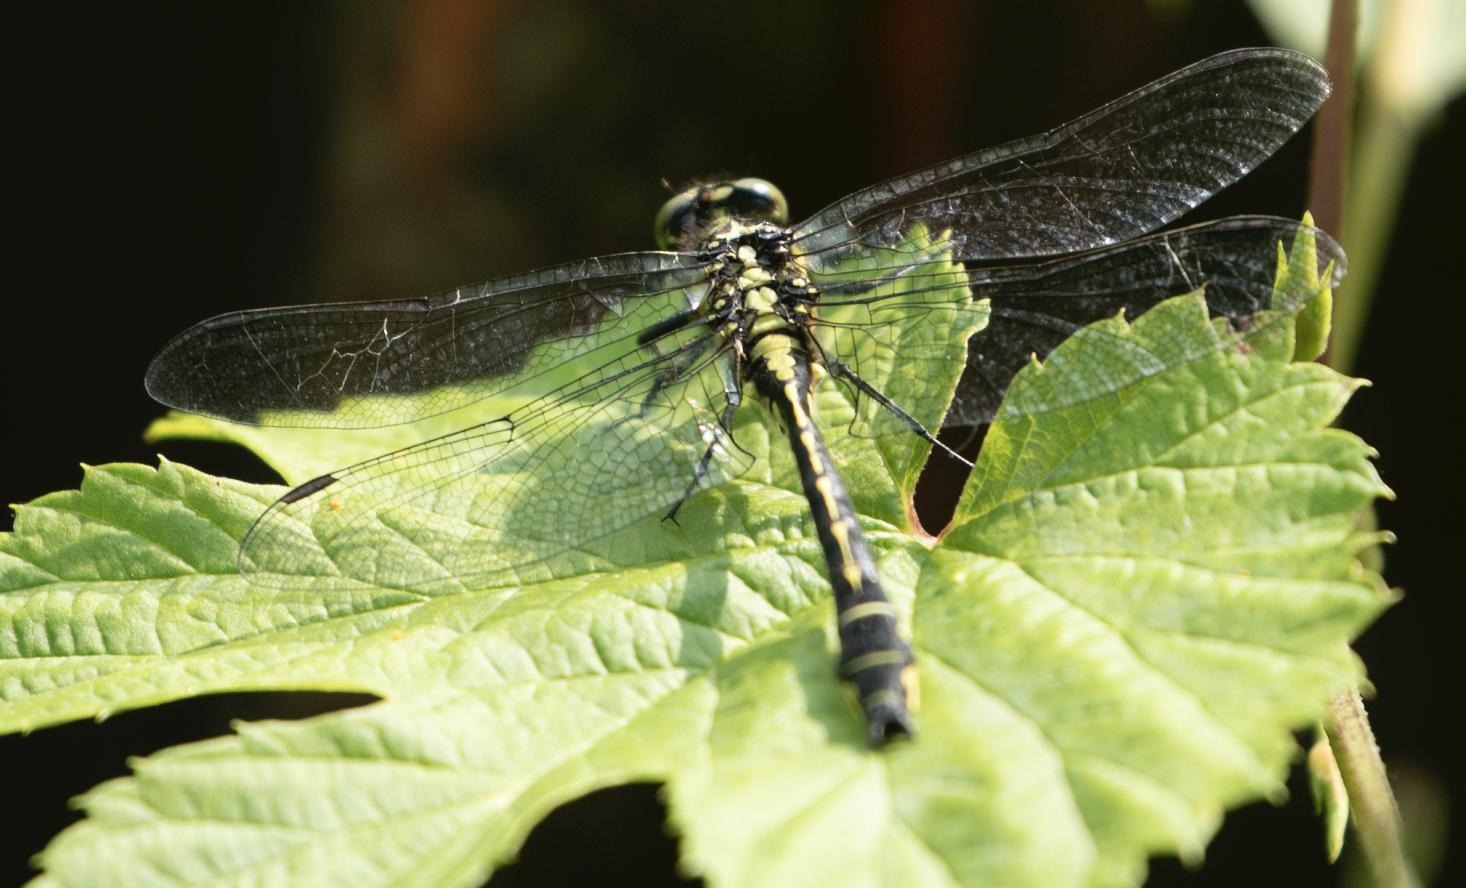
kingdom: Animalia
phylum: Arthropoda
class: Insecta
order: Odonata
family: Gomphidae
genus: Gomphus
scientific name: Gomphus vulgatissimus
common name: Club-tailed dragonfly
